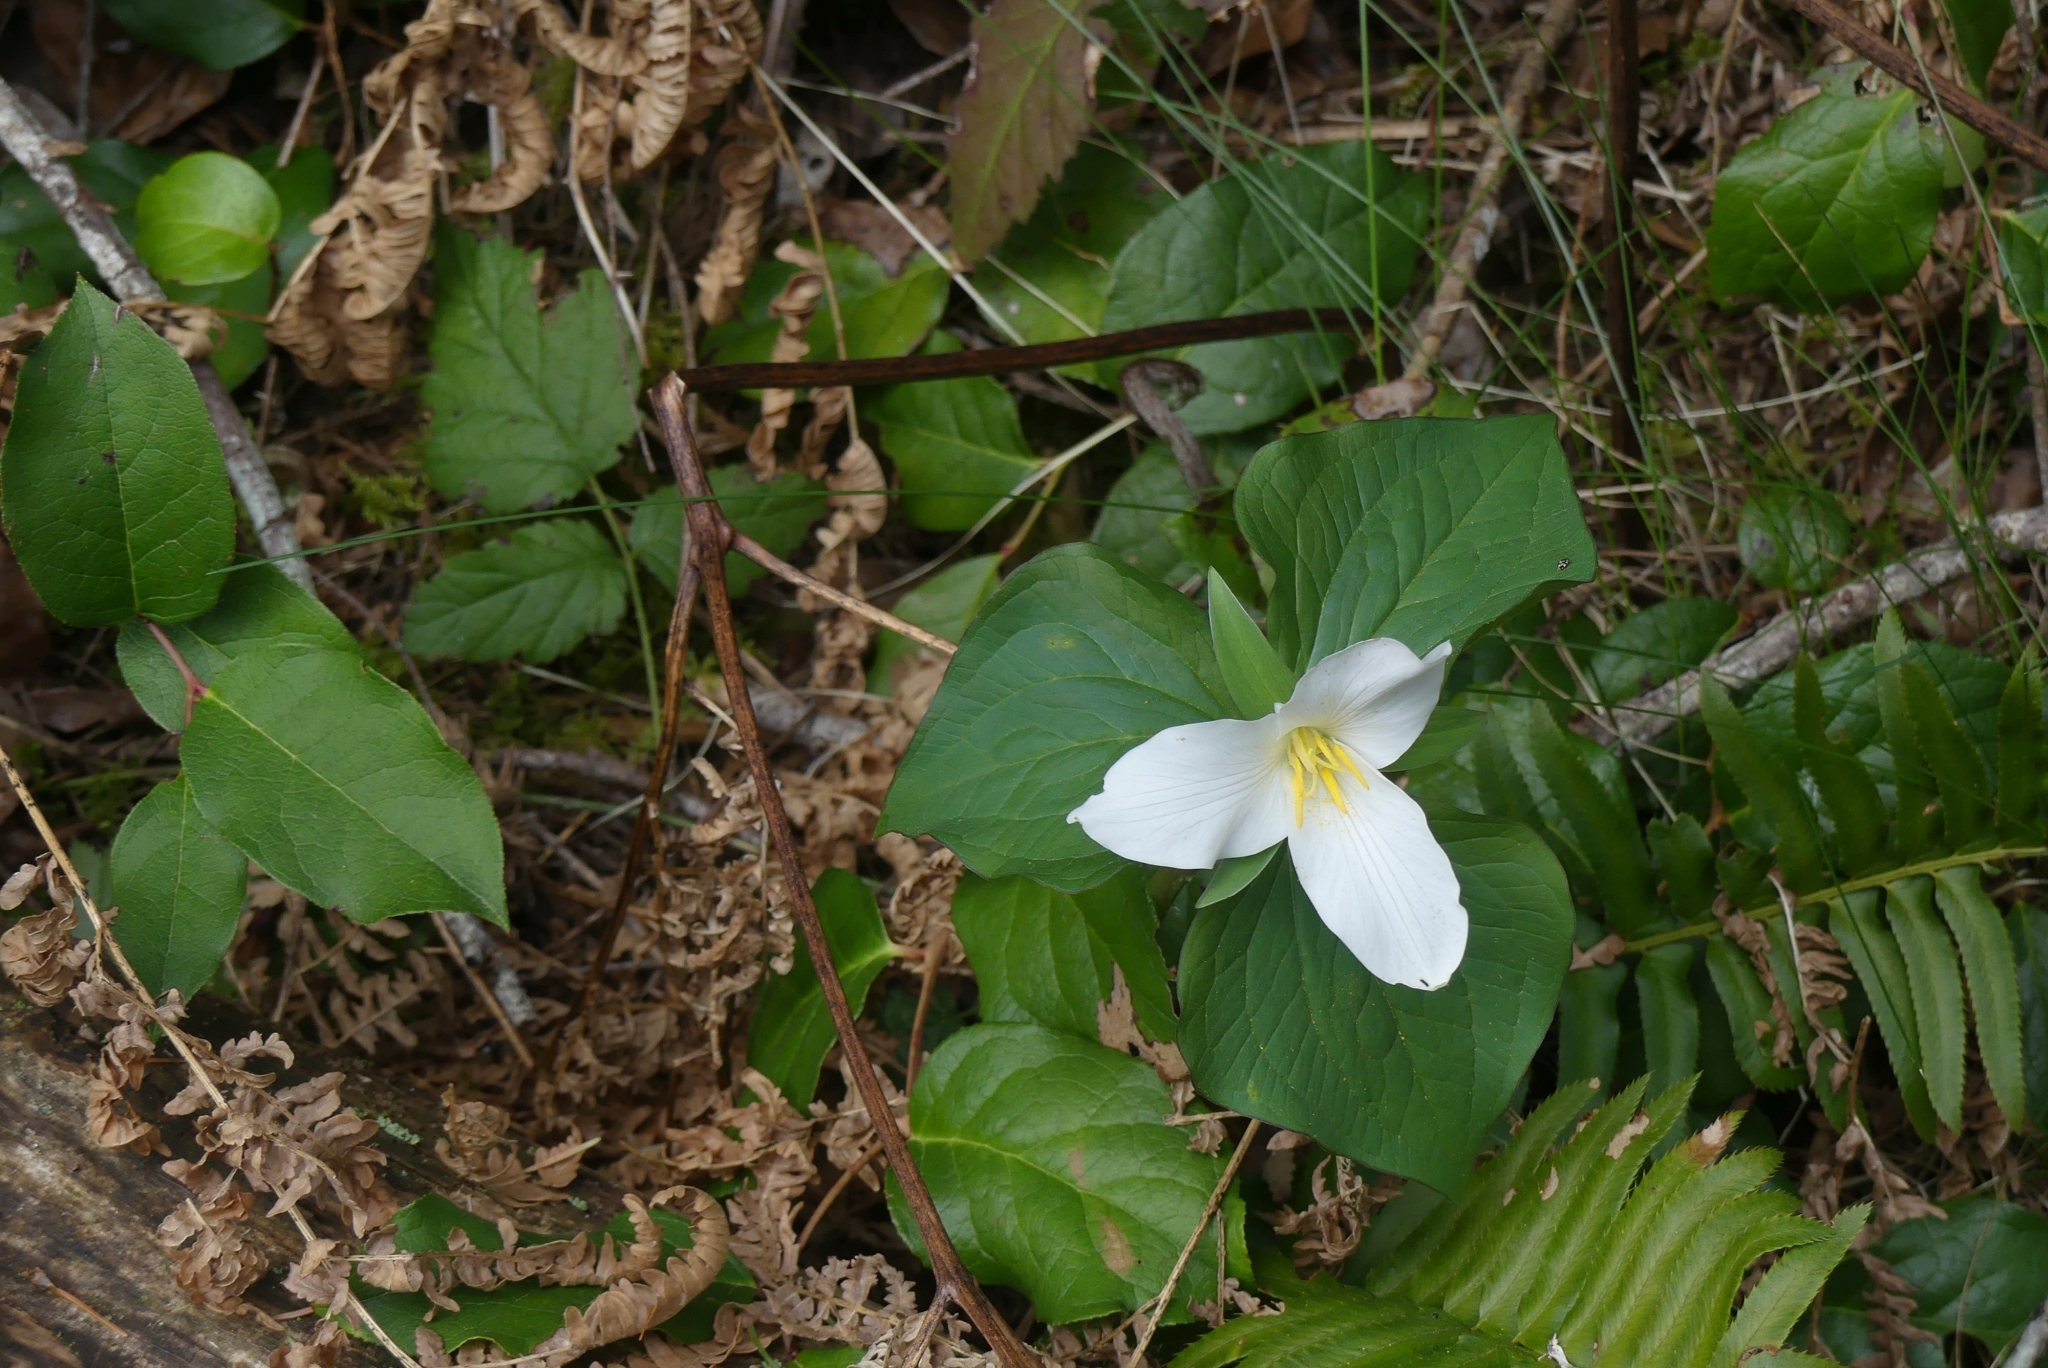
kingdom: Plantae
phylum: Tracheophyta
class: Liliopsida
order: Liliales
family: Melanthiaceae
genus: Trillium
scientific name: Trillium ovatum
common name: Pacific trillium
